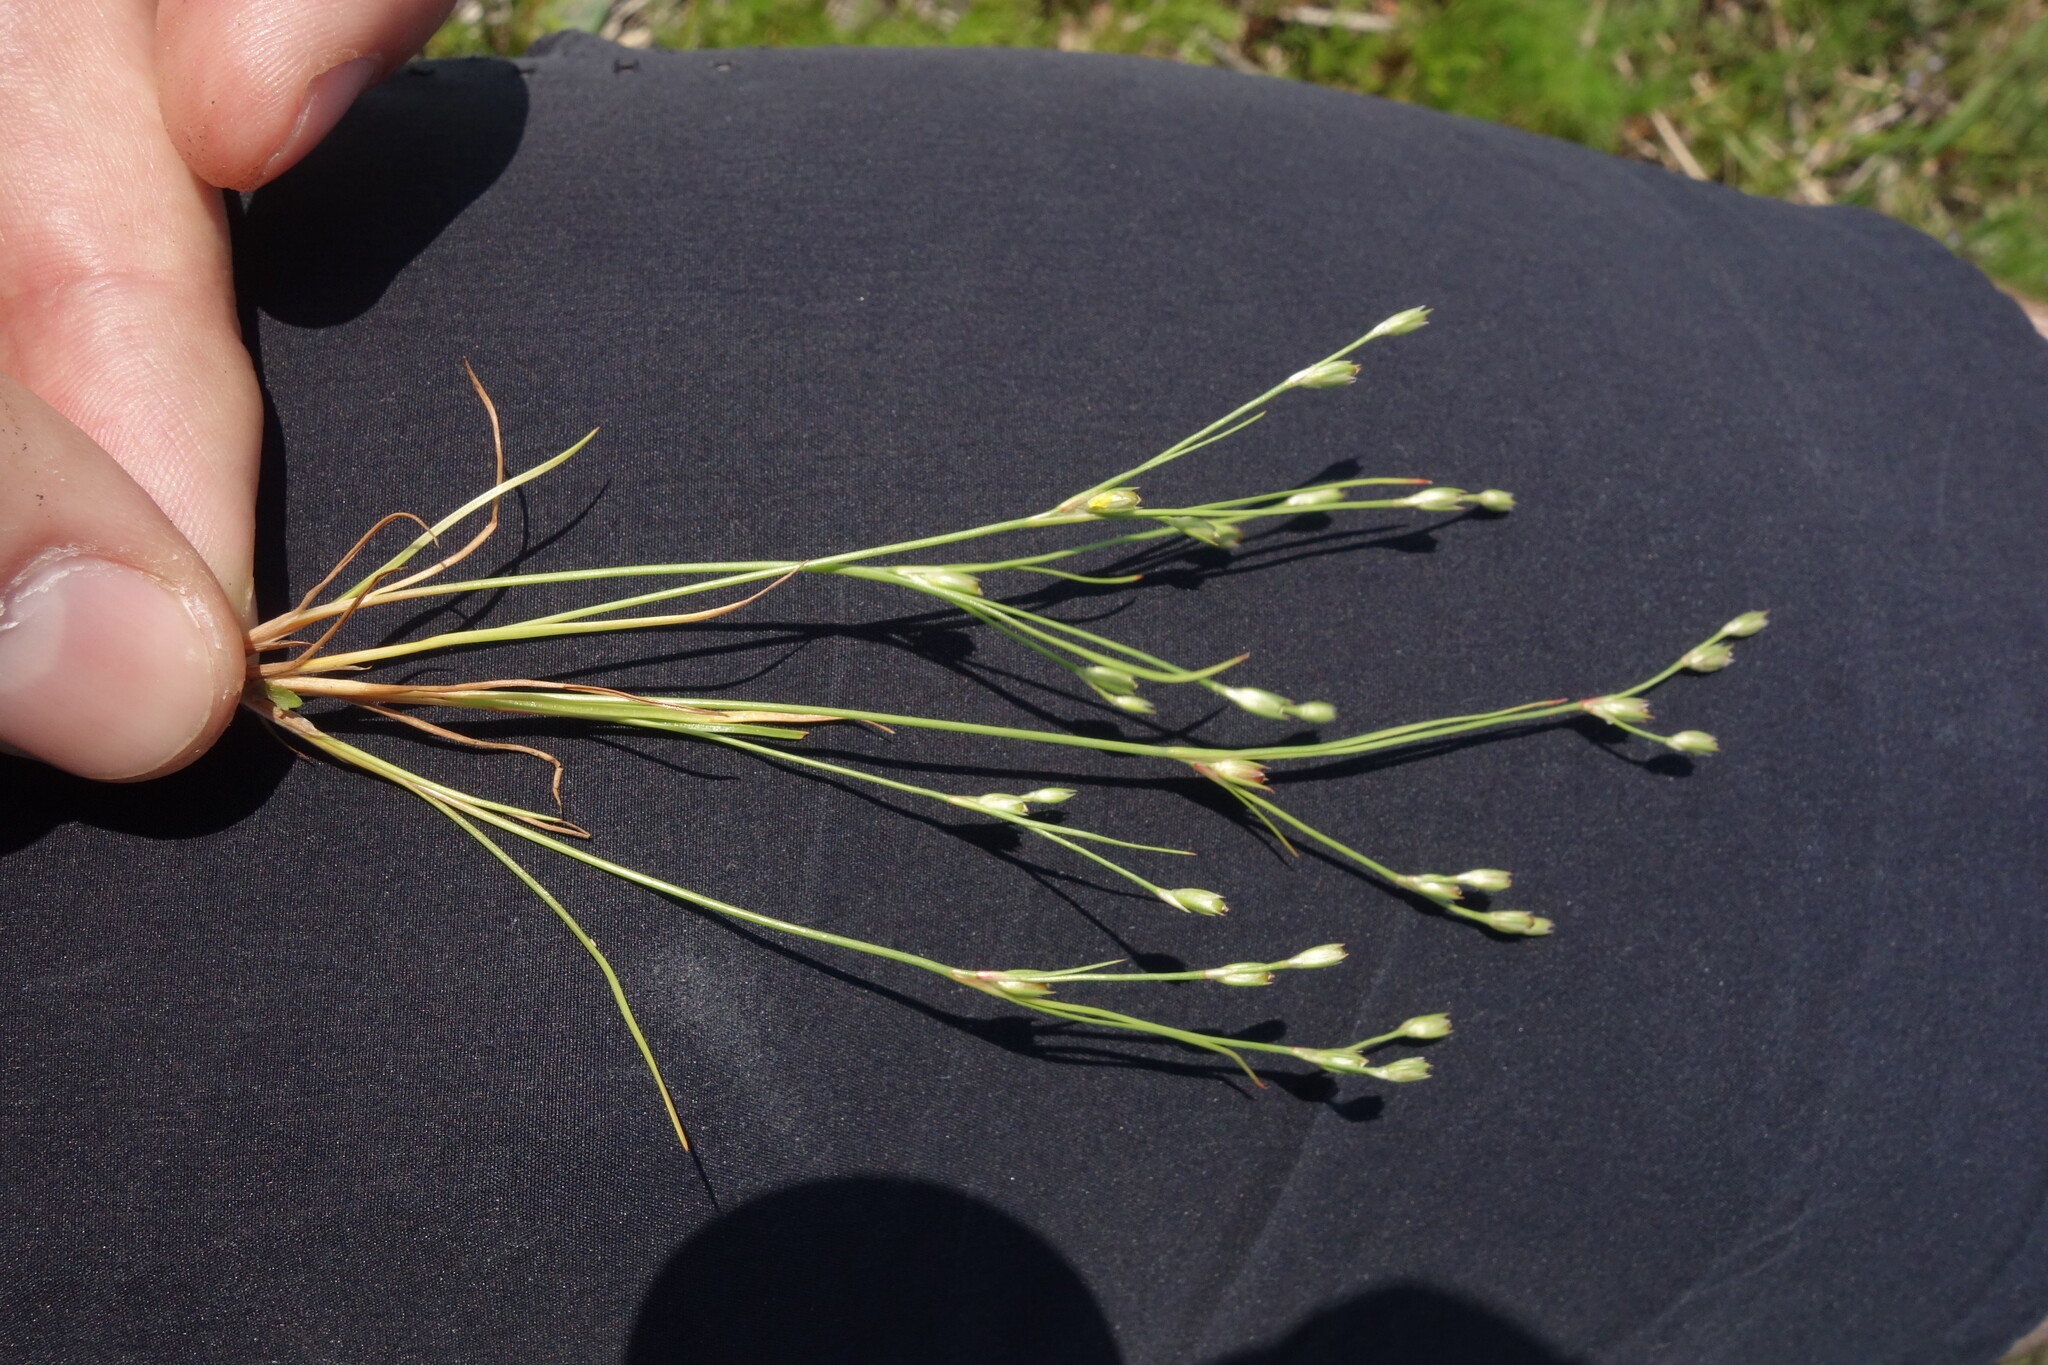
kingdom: Plantae
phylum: Tracheophyta
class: Liliopsida
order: Poales
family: Juncaceae
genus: Juncus
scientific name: Juncus bufonius
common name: Toad rush
